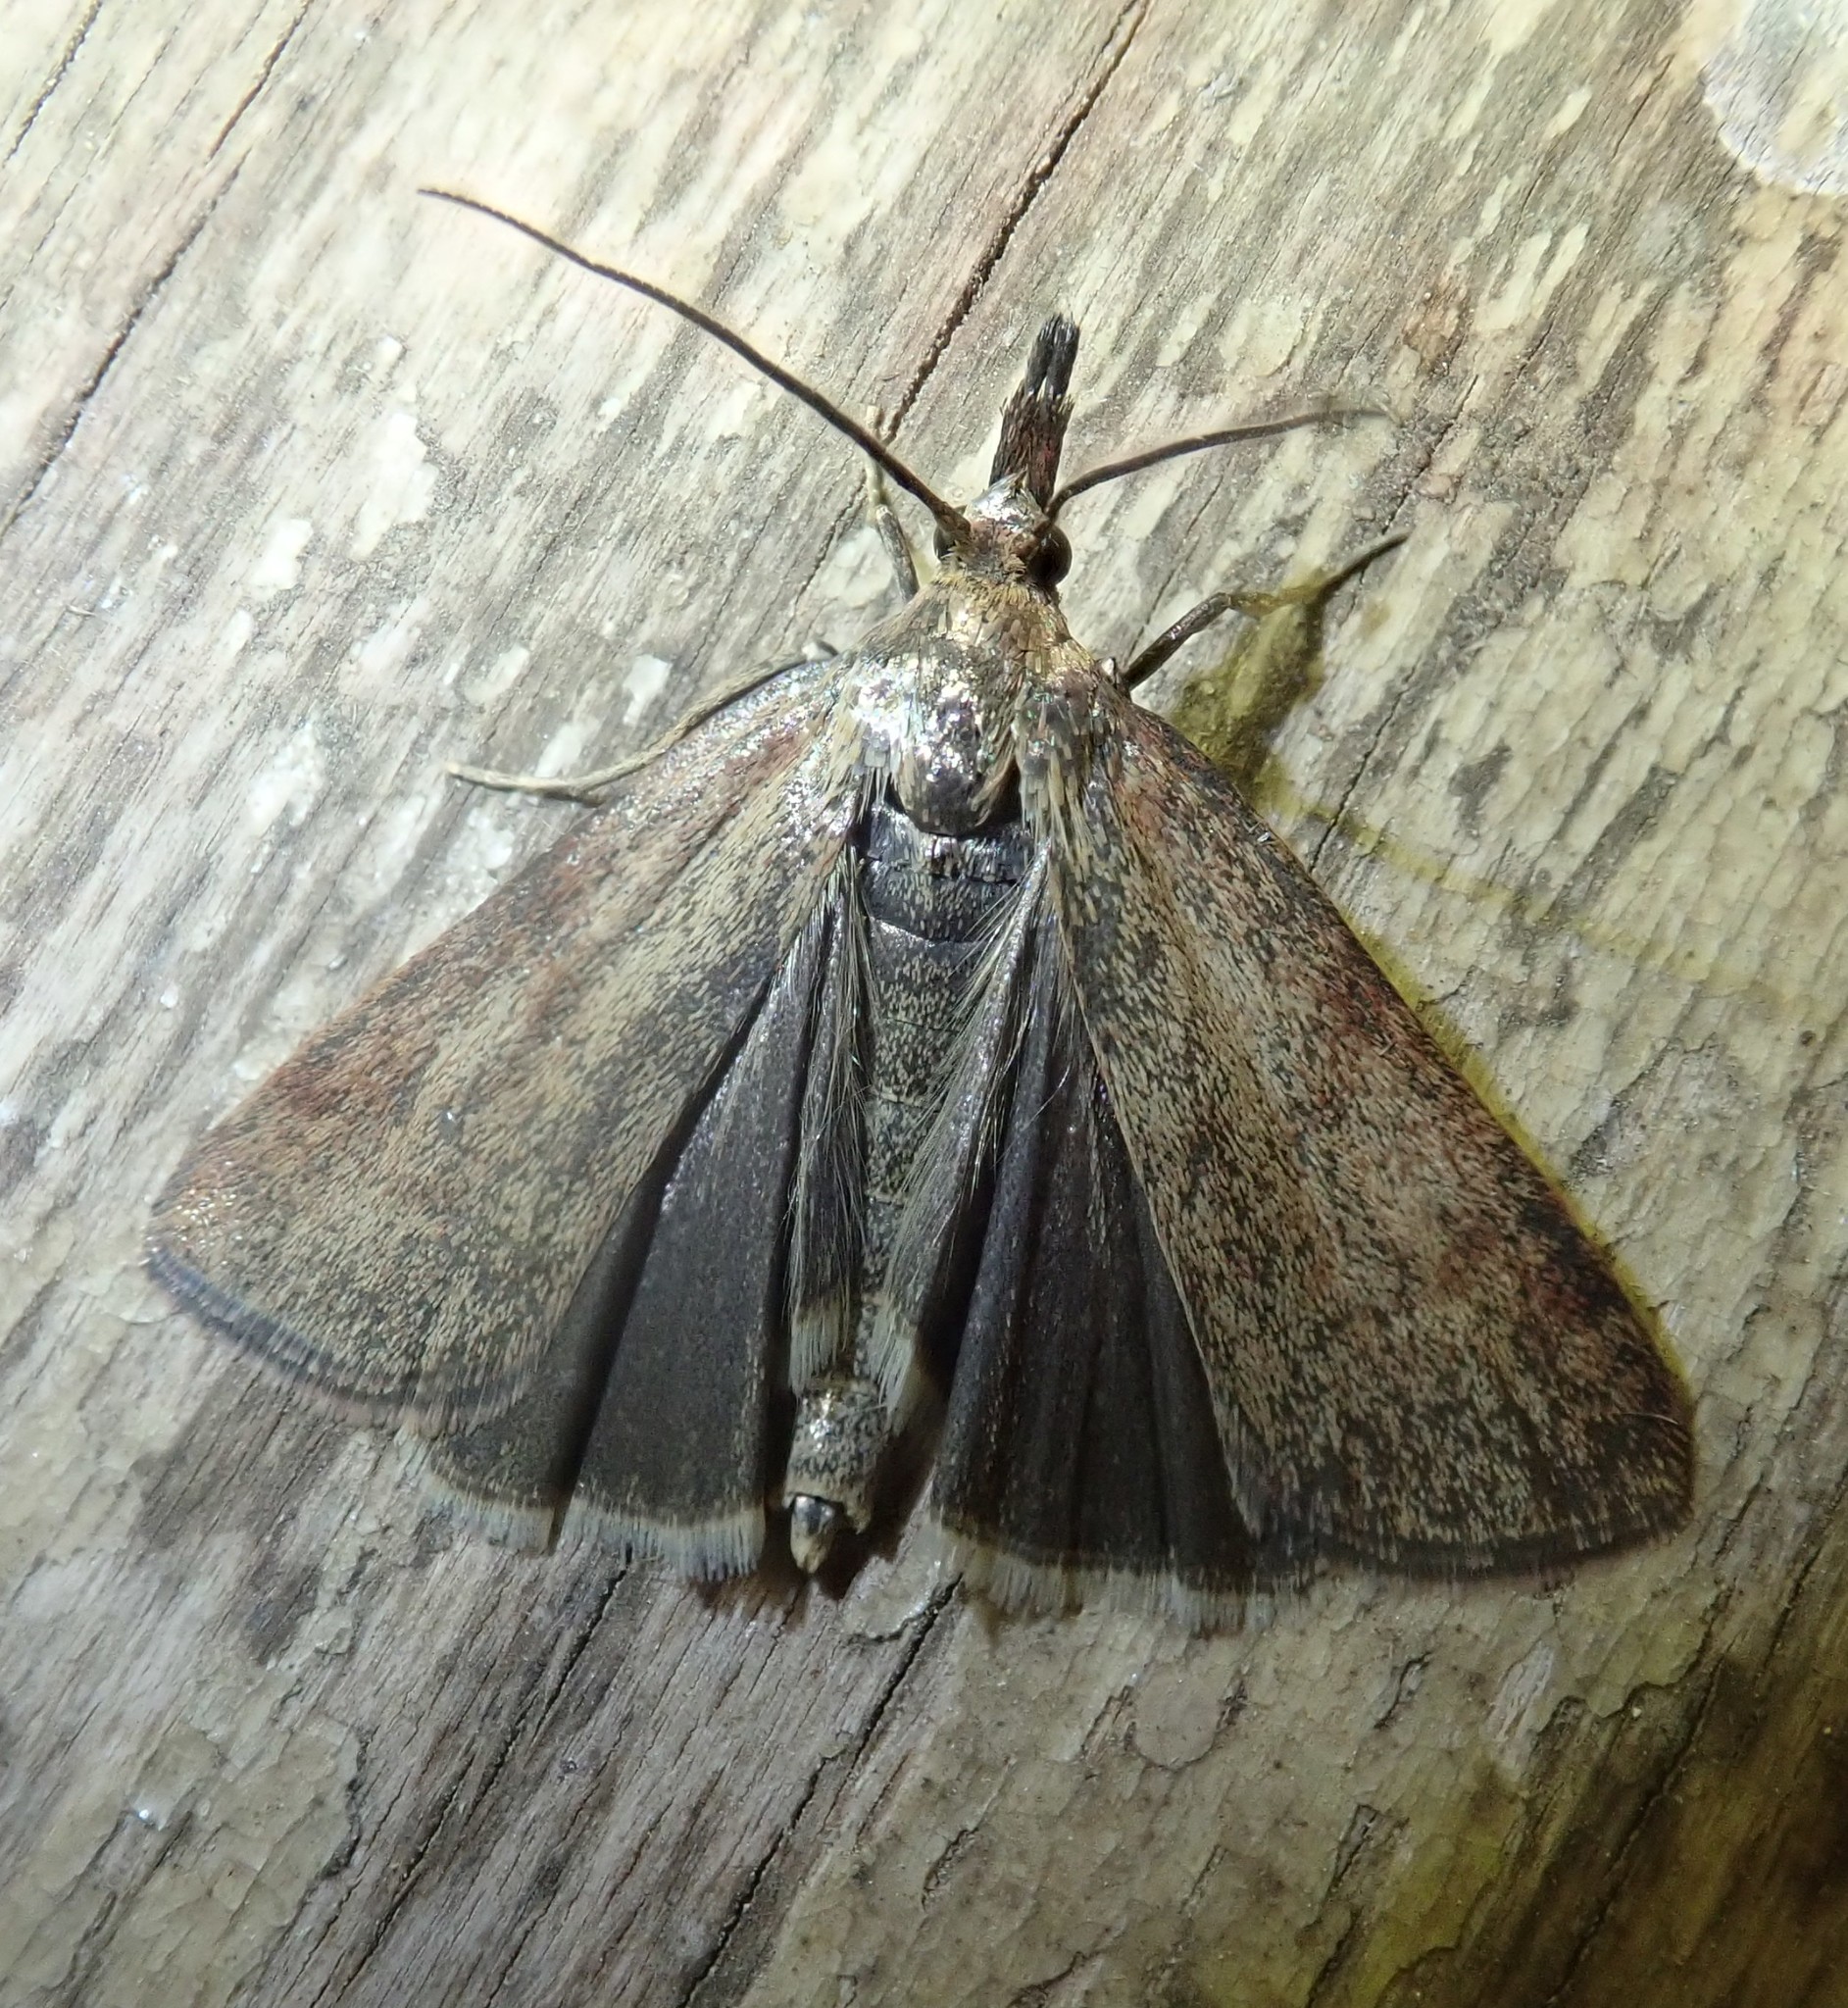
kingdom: Animalia
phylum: Arthropoda
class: Insecta
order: Lepidoptera
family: Pyralidae
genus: Hypochalcia
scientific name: Hypochalcia ahenella
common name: Dingy knot-horn
